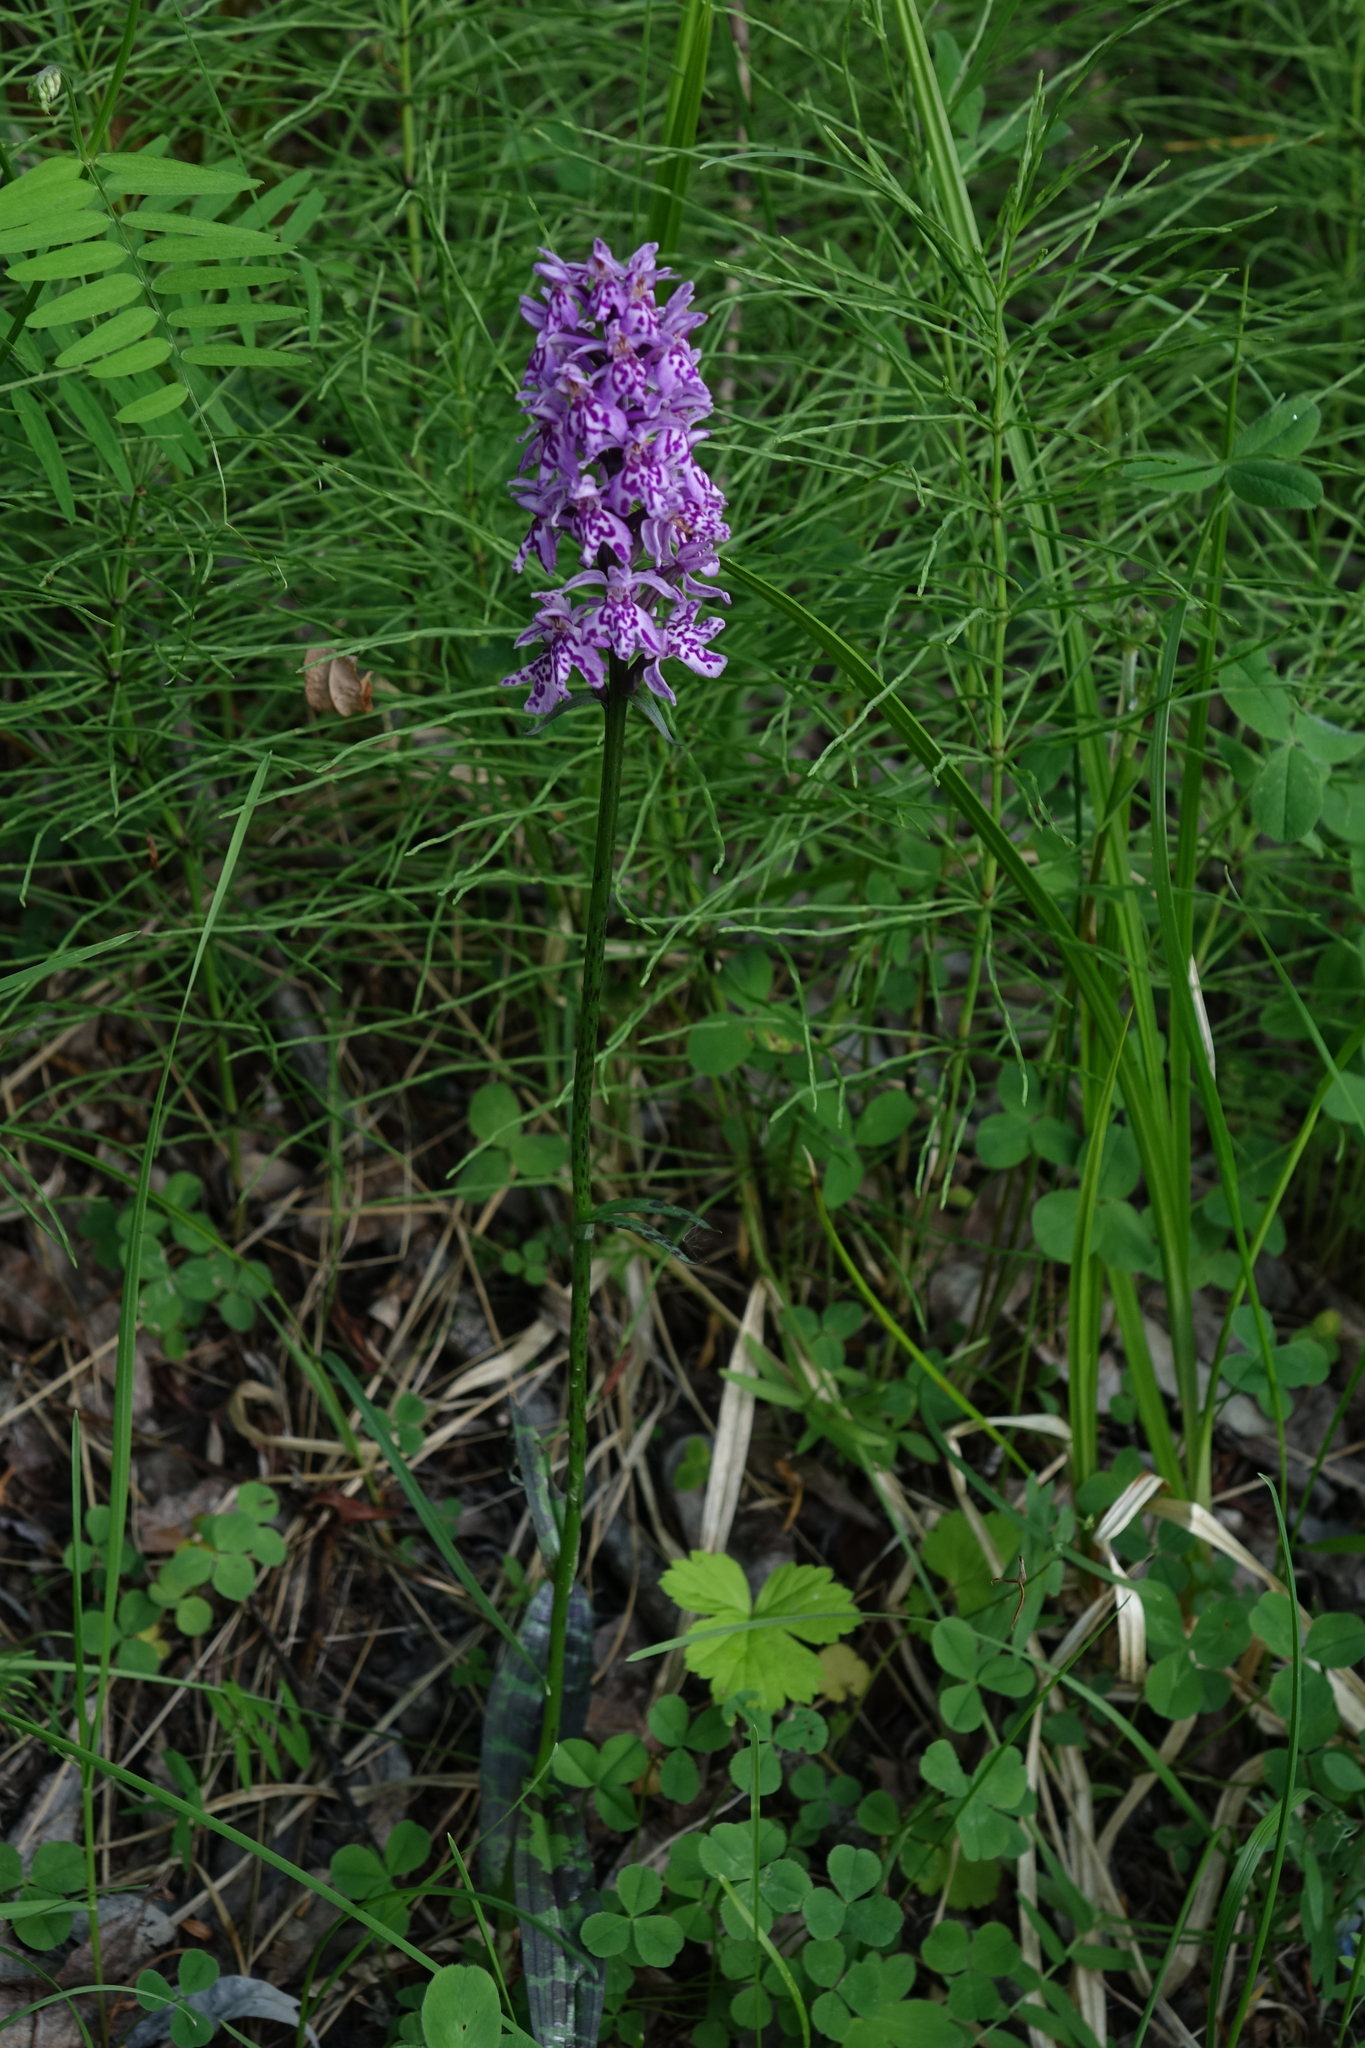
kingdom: Plantae
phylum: Tracheophyta
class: Liliopsida
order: Asparagales
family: Orchidaceae
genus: Dactylorhiza
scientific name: Dactylorhiza maculata
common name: Heath spotted-orchid
